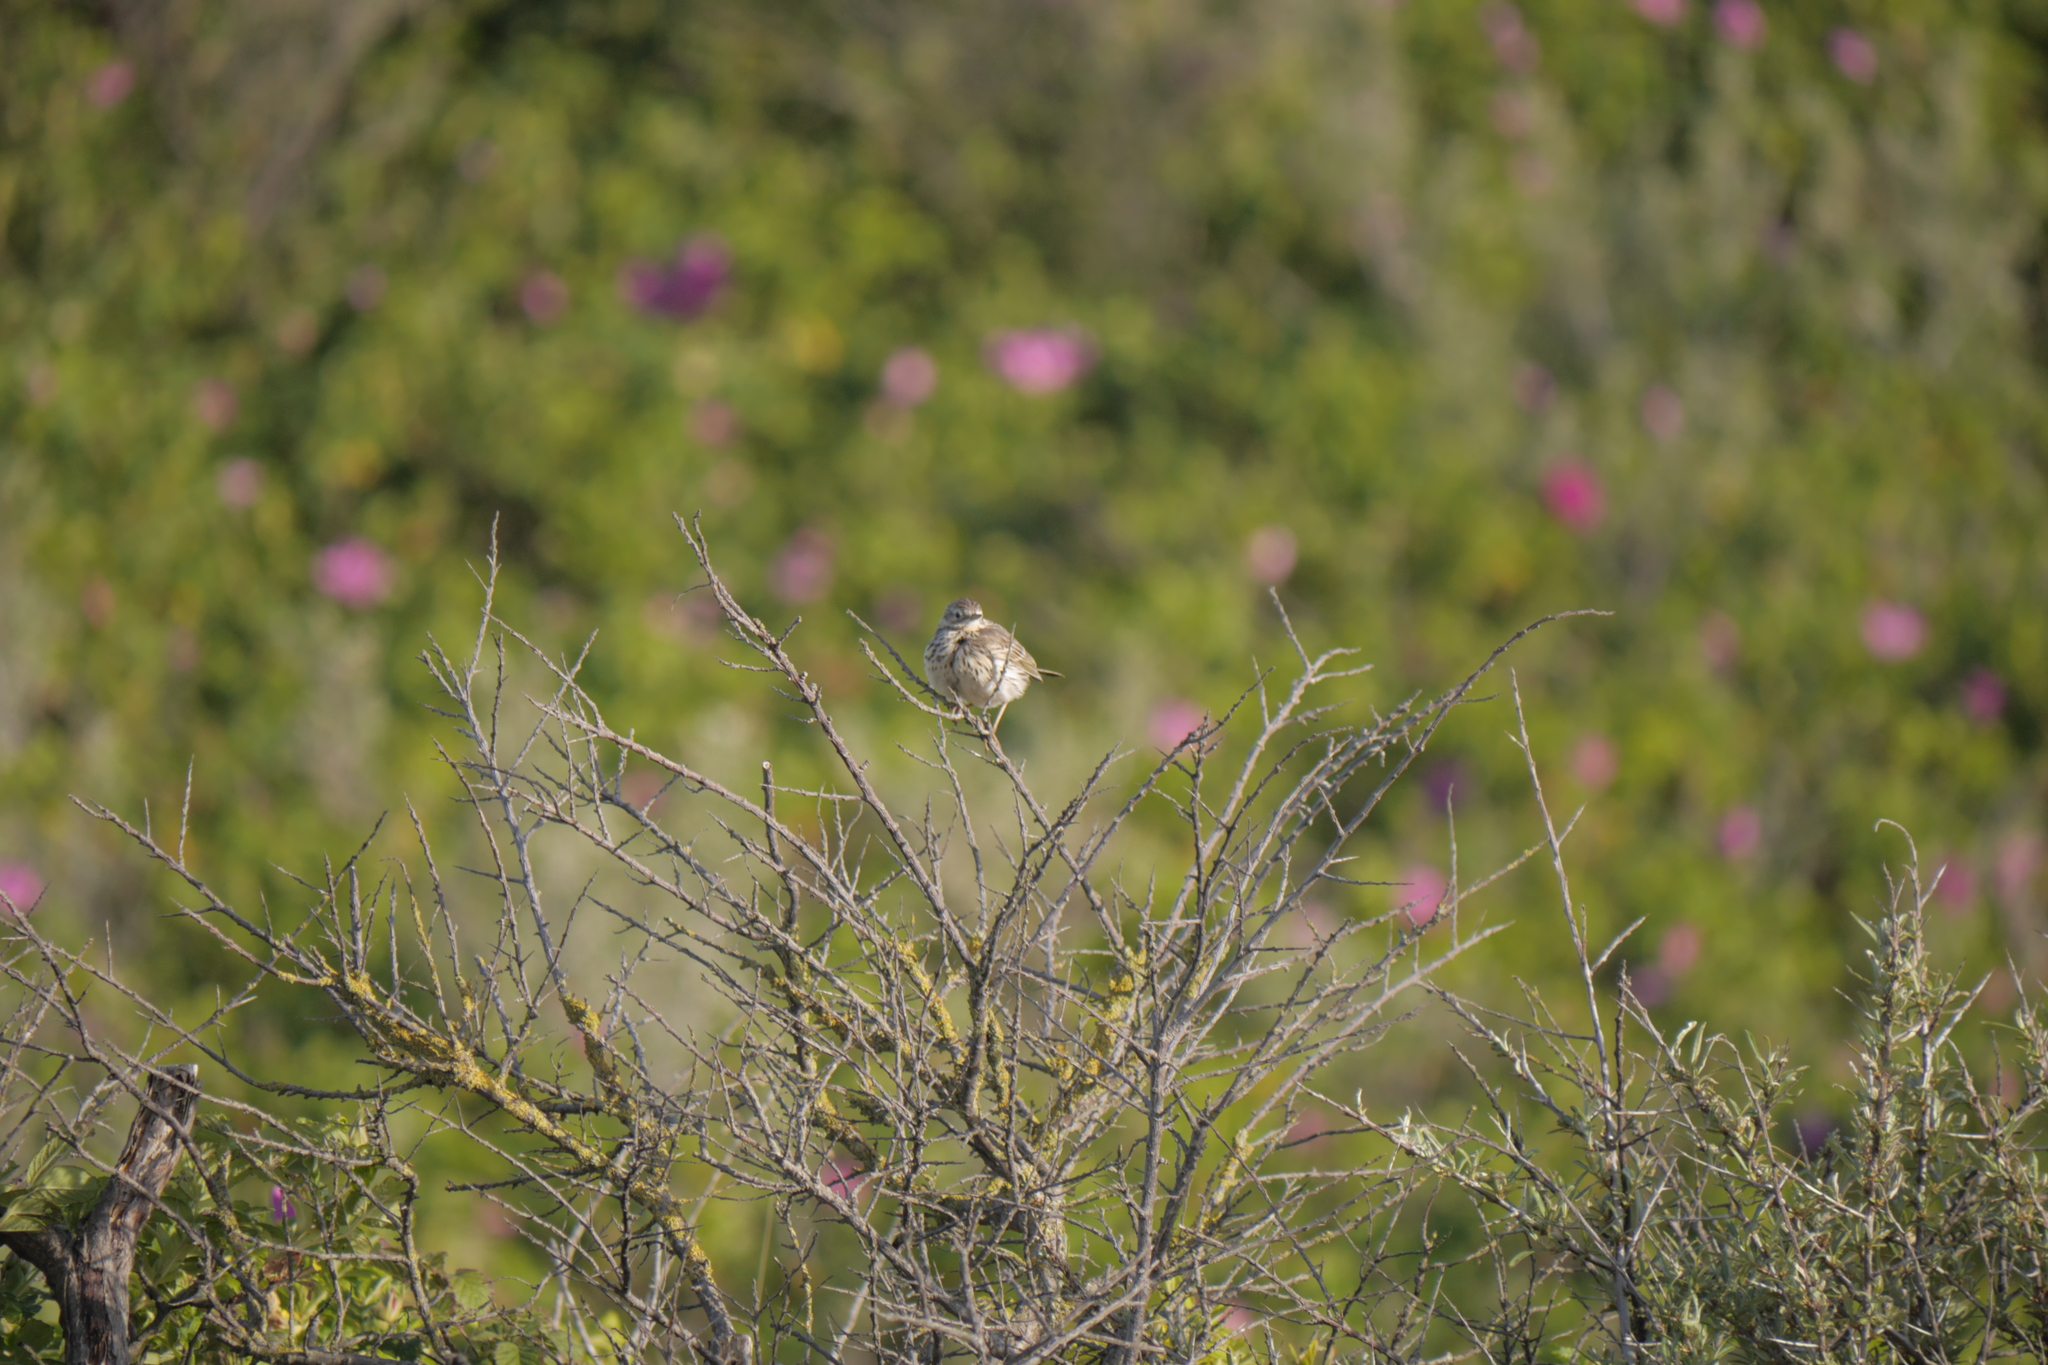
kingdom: Animalia
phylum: Chordata
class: Aves
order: Passeriformes
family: Motacillidae
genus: Anthus
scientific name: Anthus pratensis
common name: Meadow pipit
